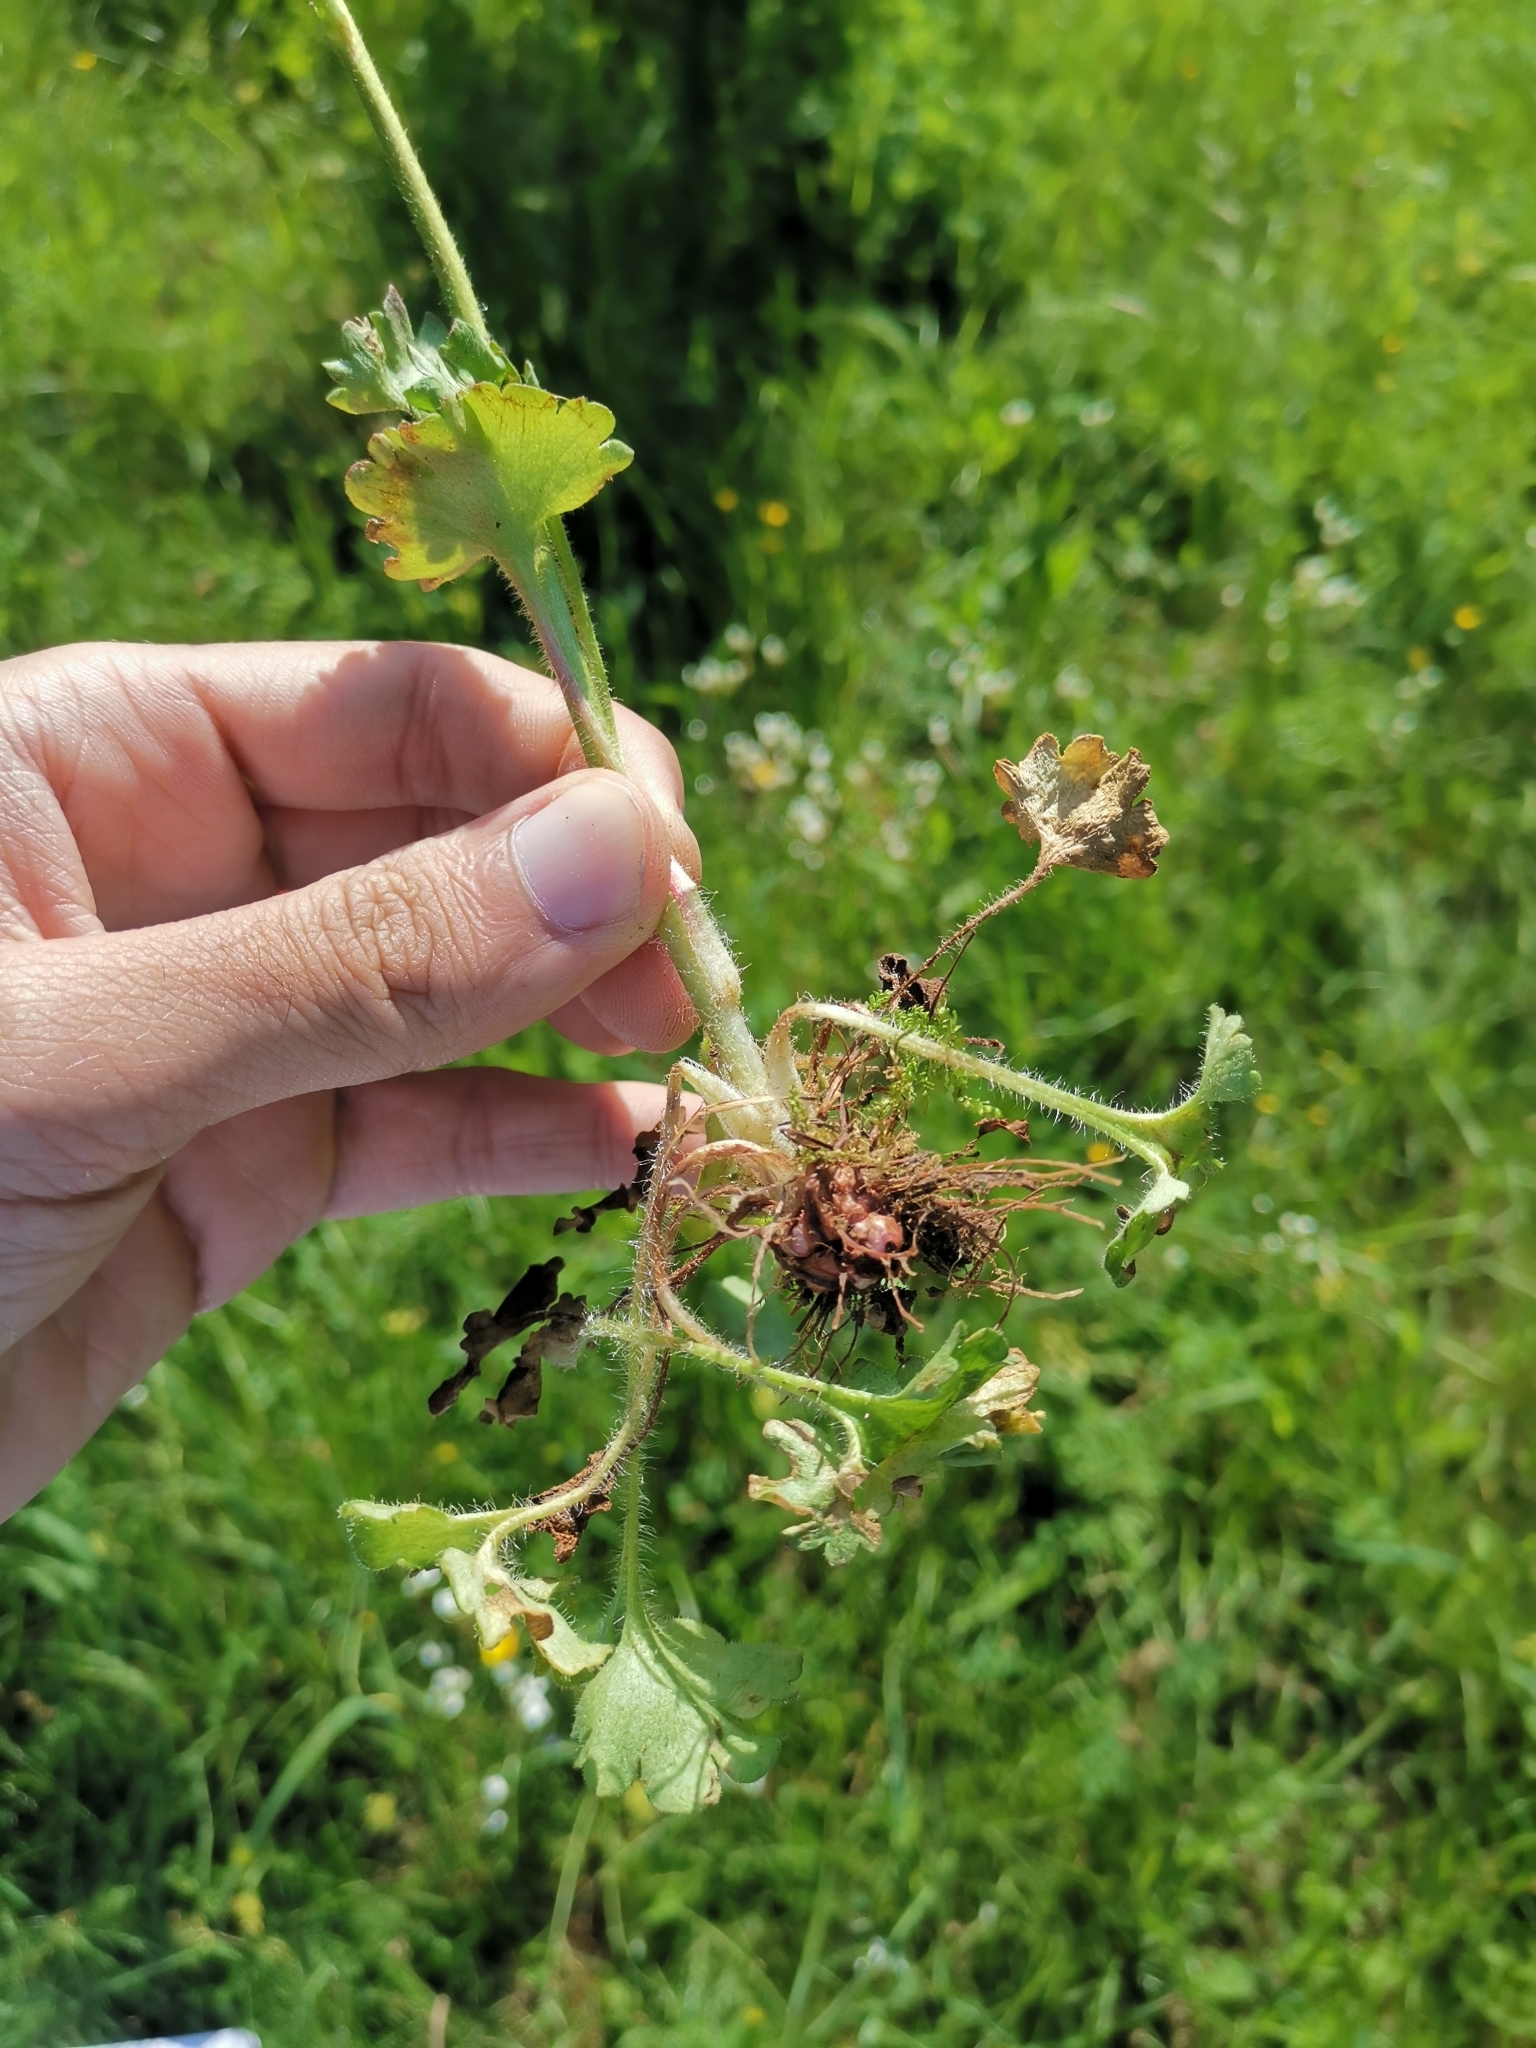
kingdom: Plantae
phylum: Tracheophyta
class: Magnoliopsida
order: Saxifragales
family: Saxifragaceae
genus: Saxifraga
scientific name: Saxifraga granulata
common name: Meadow saxifrage
